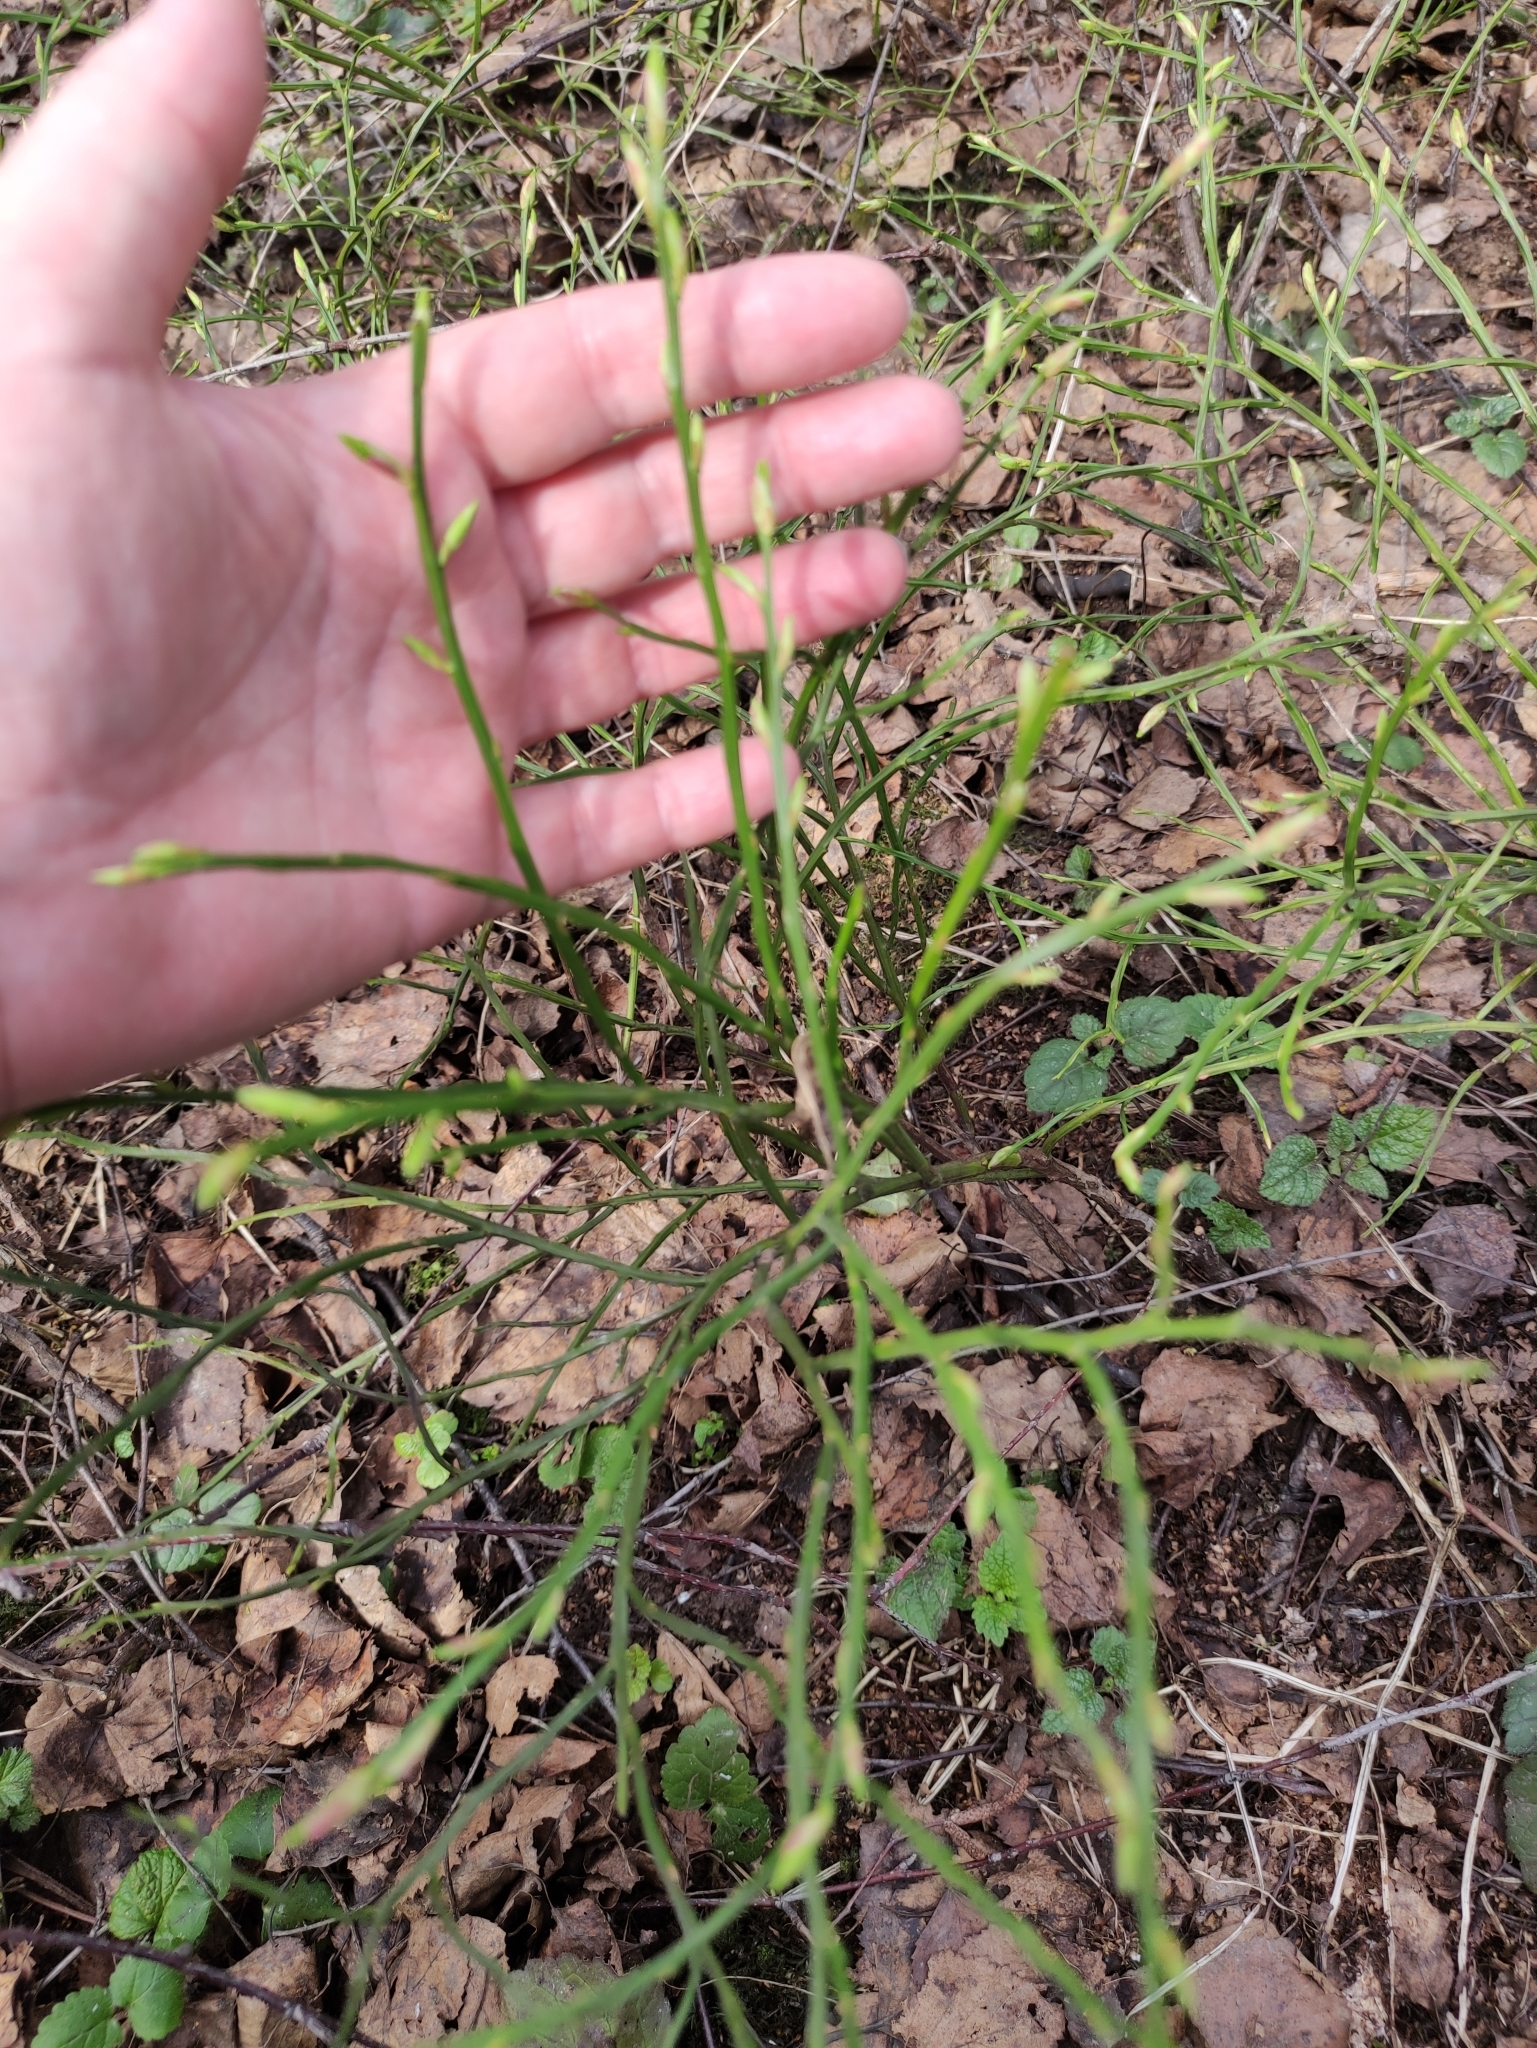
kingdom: Plantae
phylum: Tracheophyta
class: Magnoliopsida
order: Ericales
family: Ericaceae
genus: Vaccinium
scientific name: Vaccinium myrtillus
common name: Bilberry
